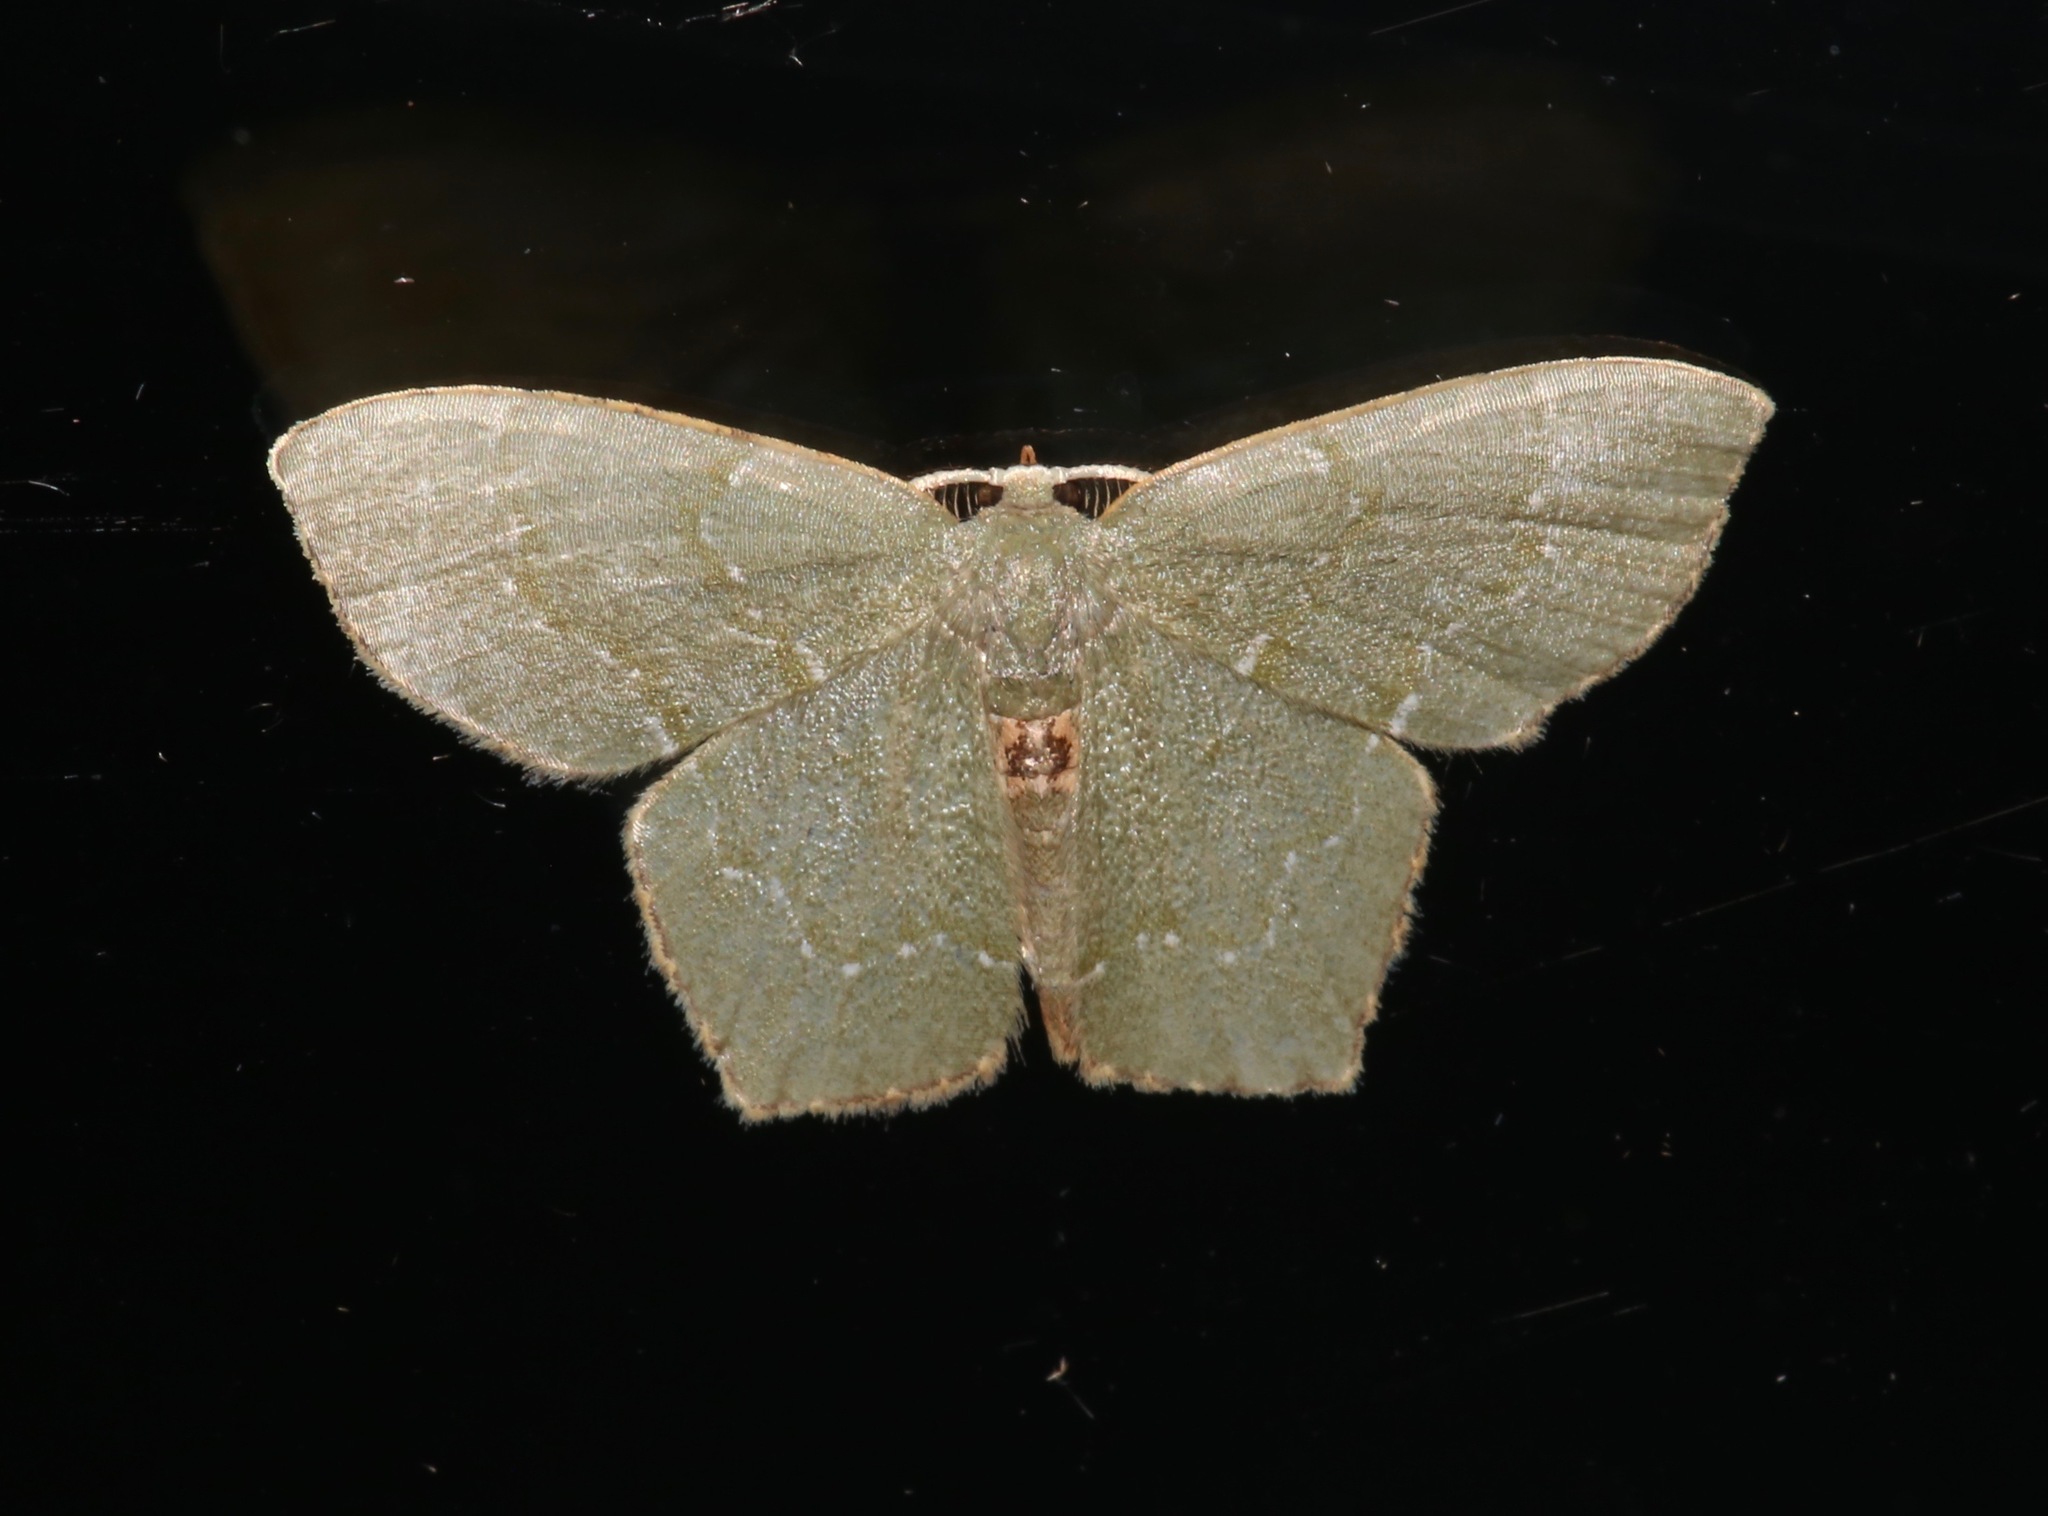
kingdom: Animalia
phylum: Arthropoda
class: Insecta
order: Lepidoptera
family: Geometridae
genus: Chloropteryx
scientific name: Chloropteryx tepperaria
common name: Angle winged emerald moth
